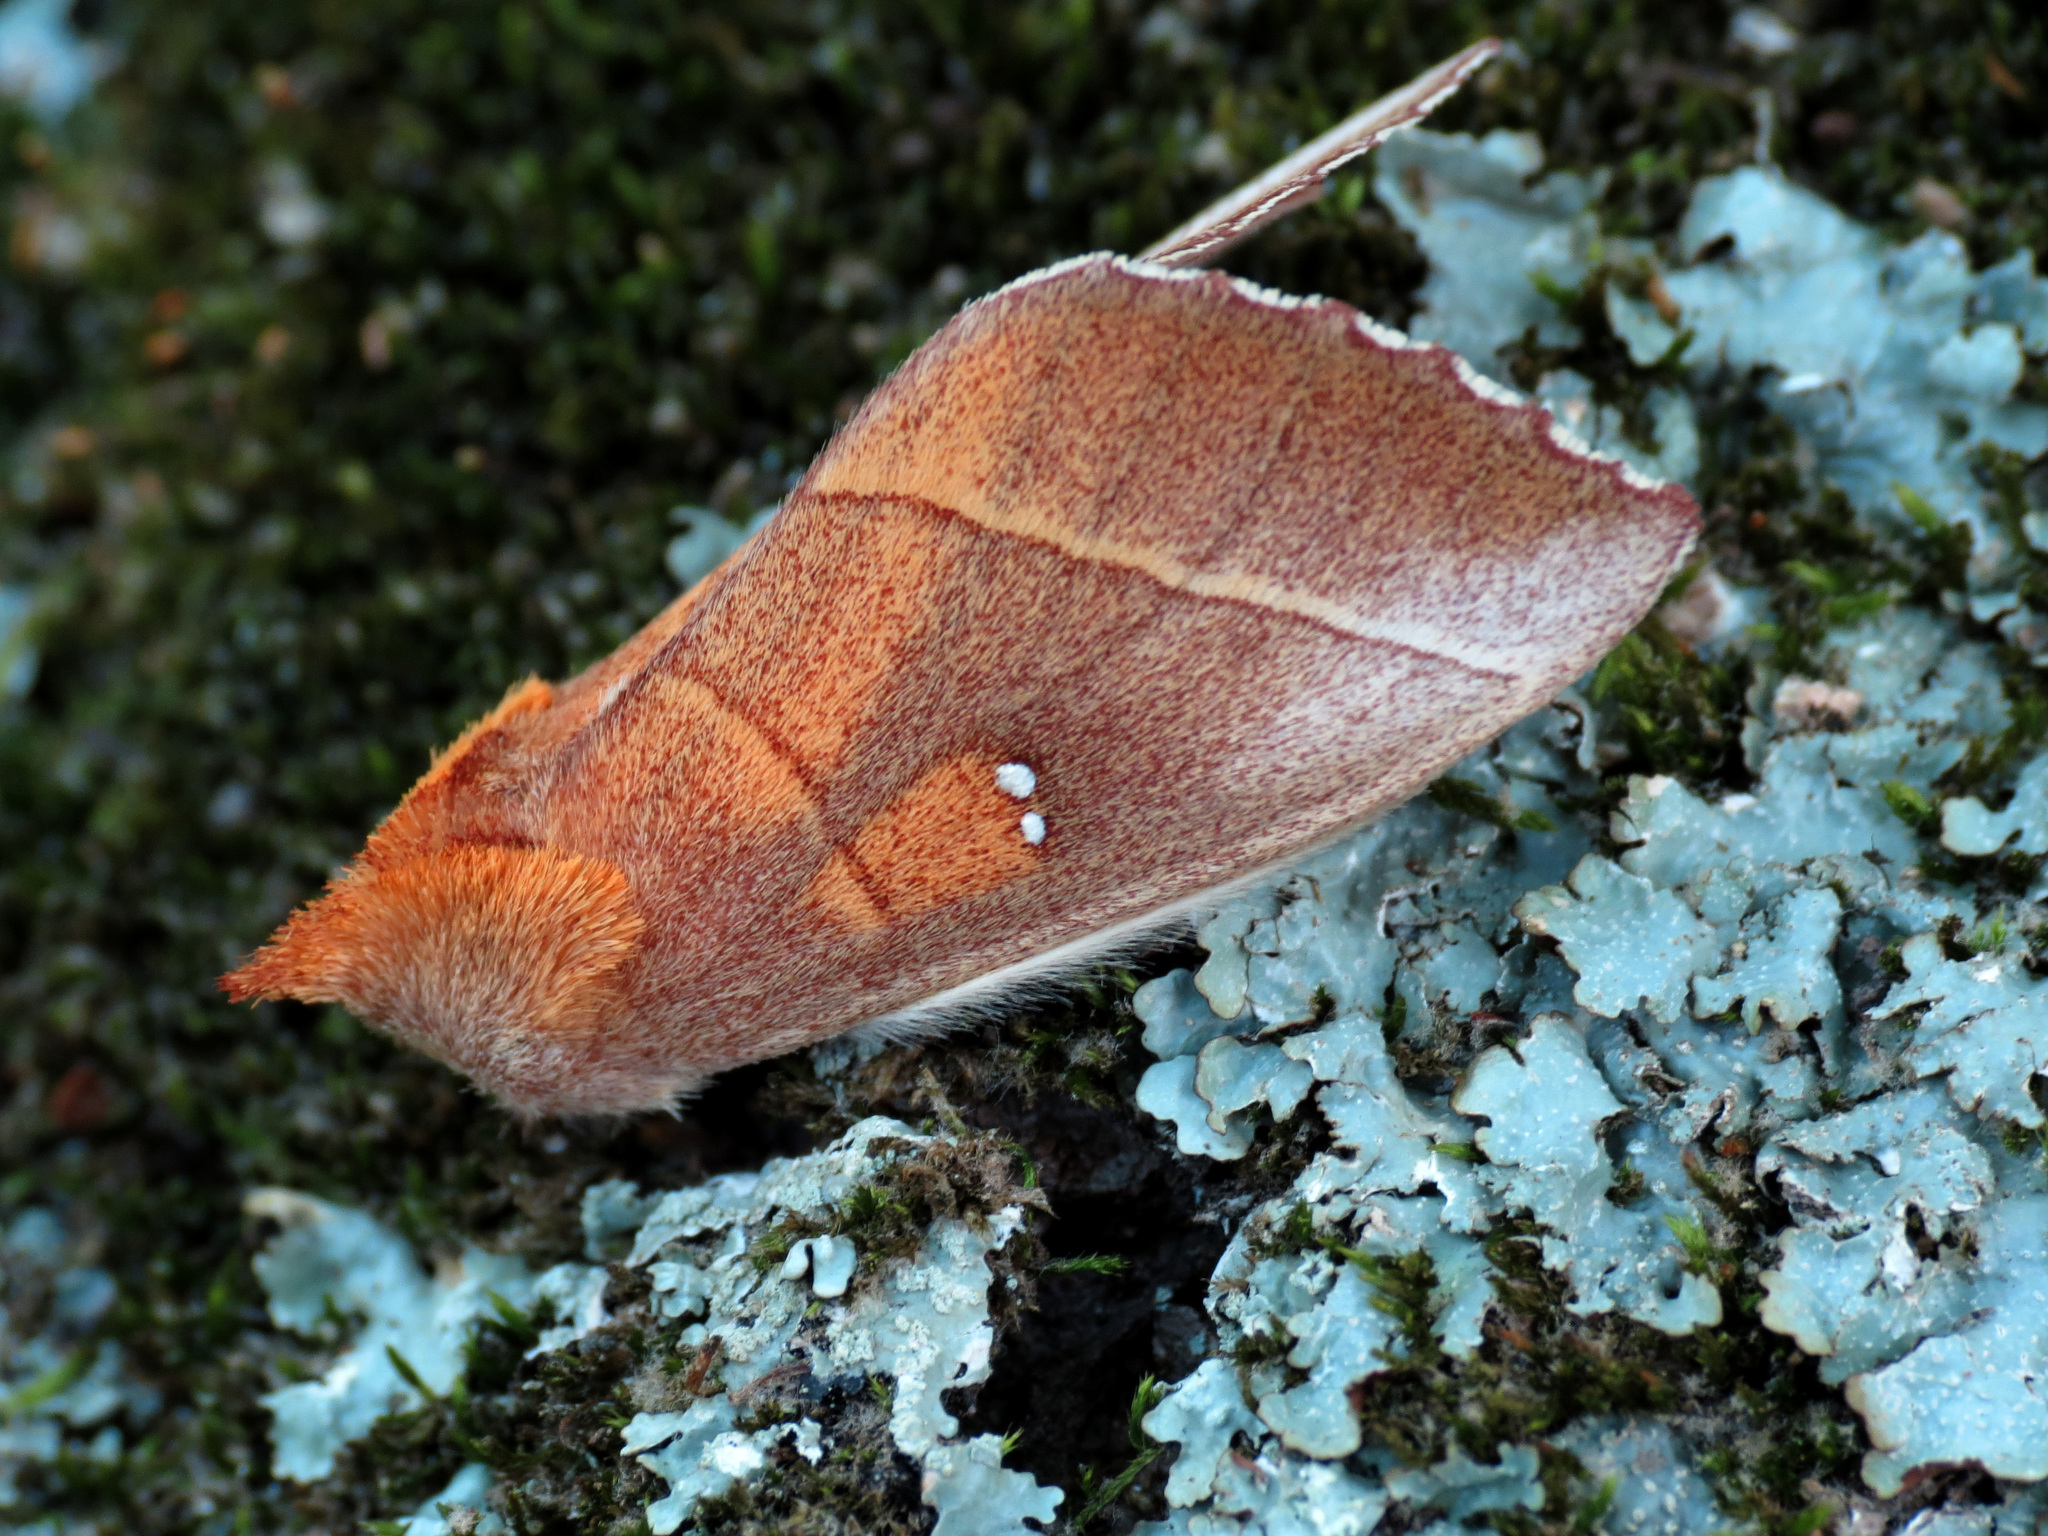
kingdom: Animalia
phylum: Arthropoda
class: Insecta
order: Lepidoptera
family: Notodontidae
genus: Nadata
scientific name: Nadata gibbosa
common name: White-dotted prominent
